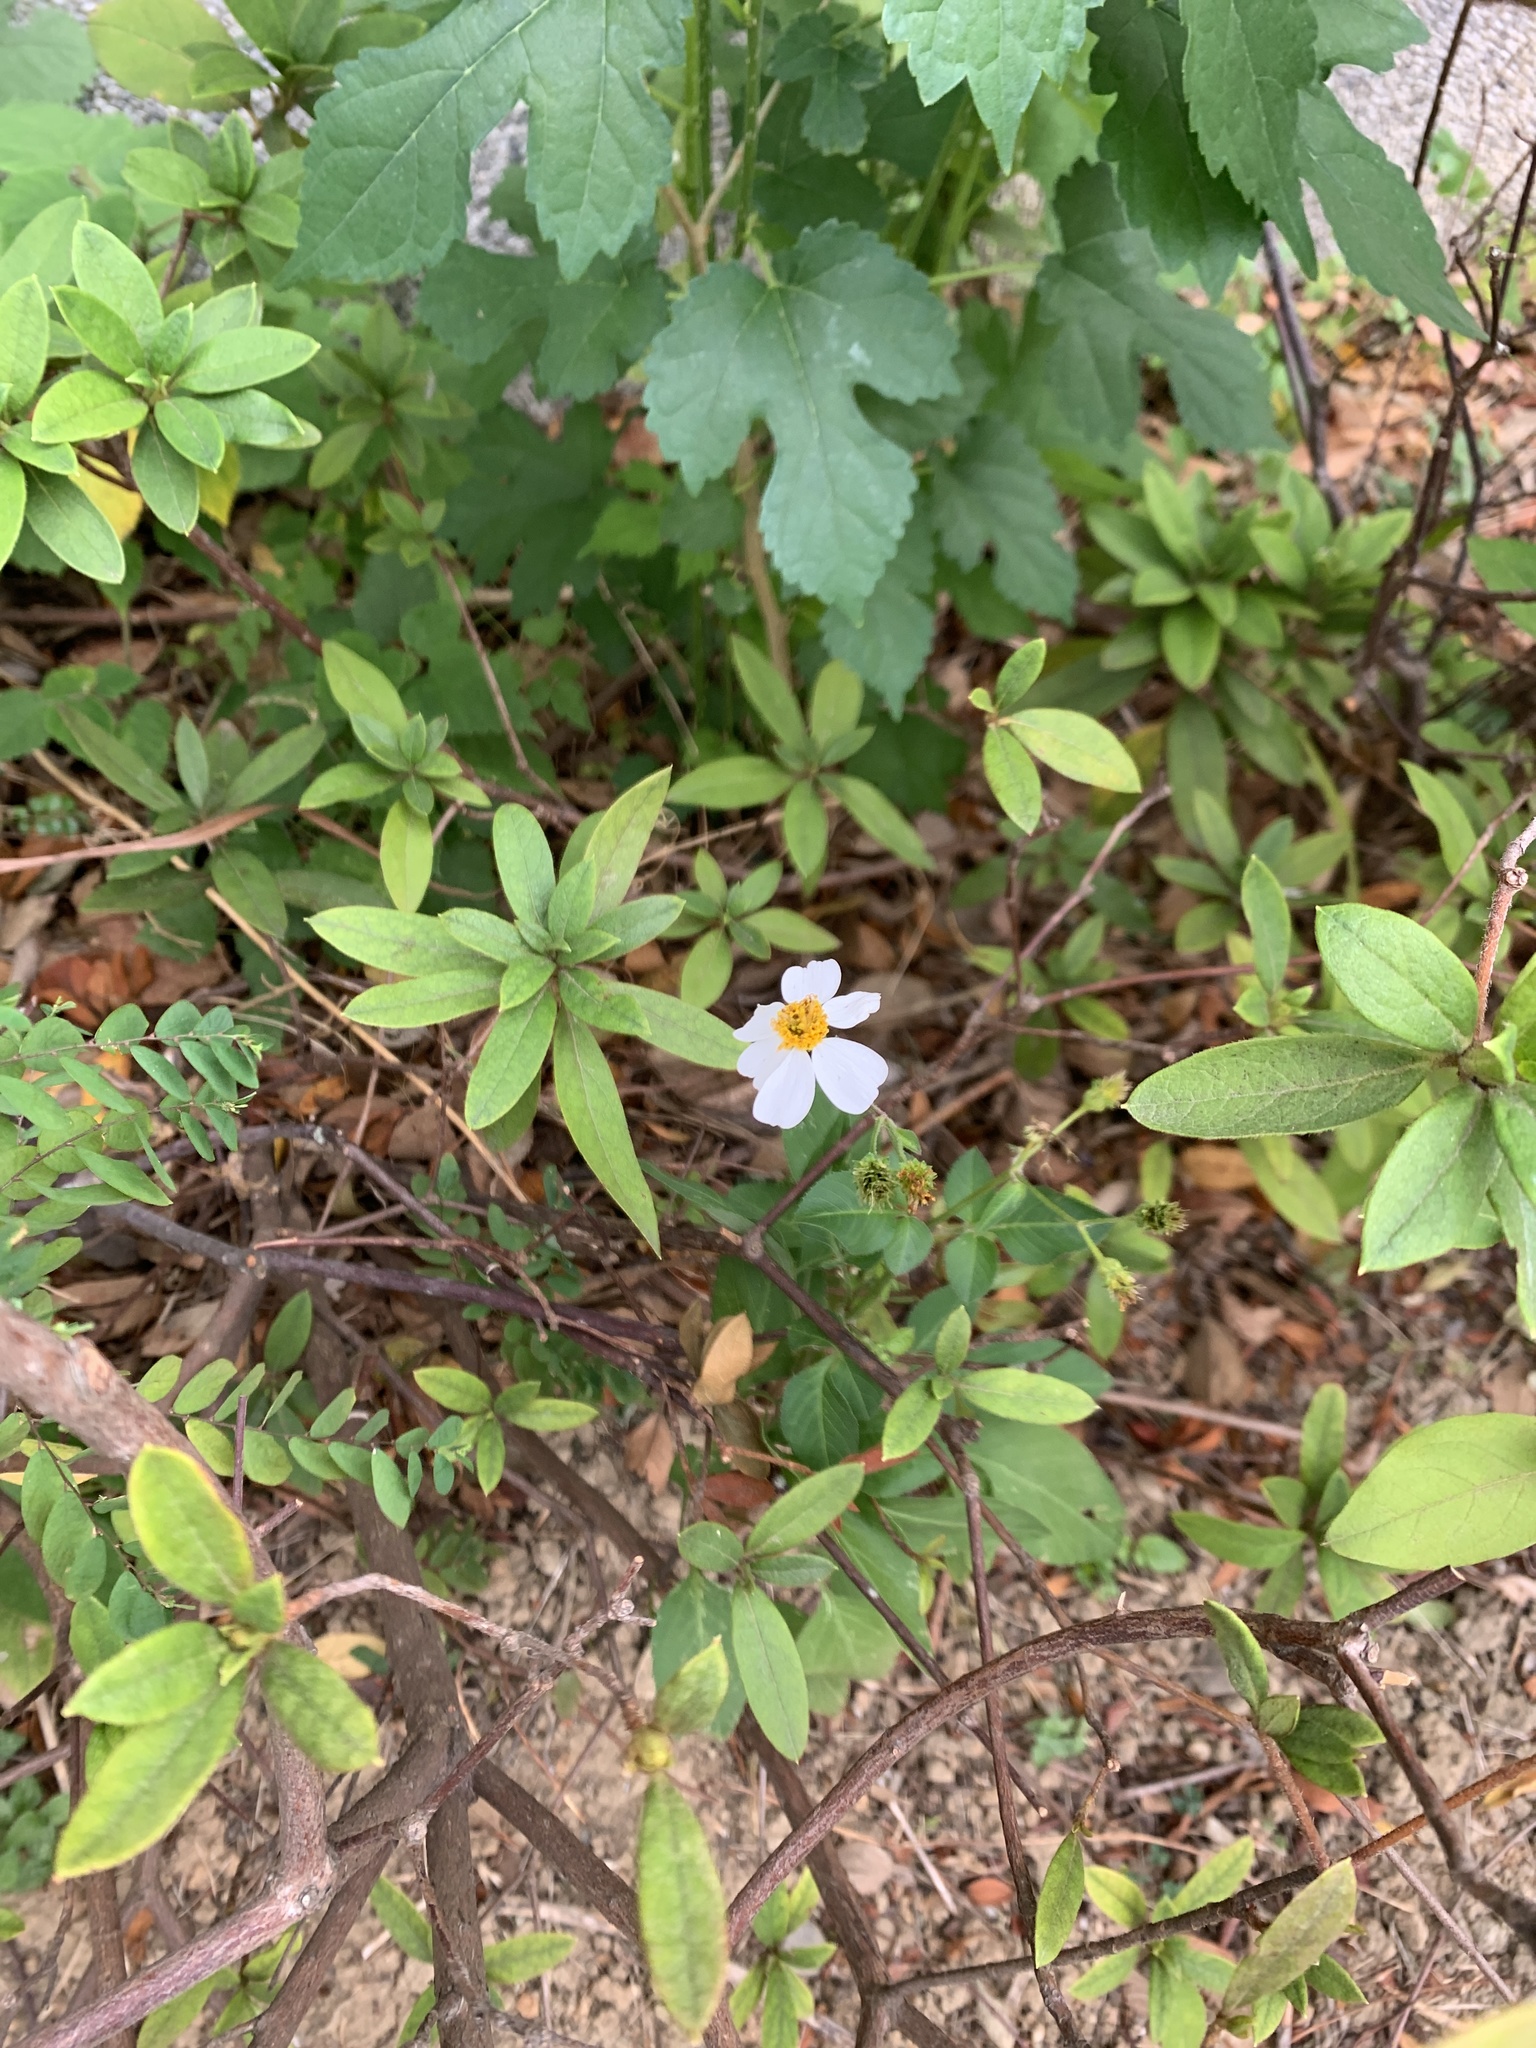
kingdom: Plantae
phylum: Tracheophyta
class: Magnoliopsida
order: Asterales
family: Asteraceae
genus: Bidens
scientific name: Bidens alba
